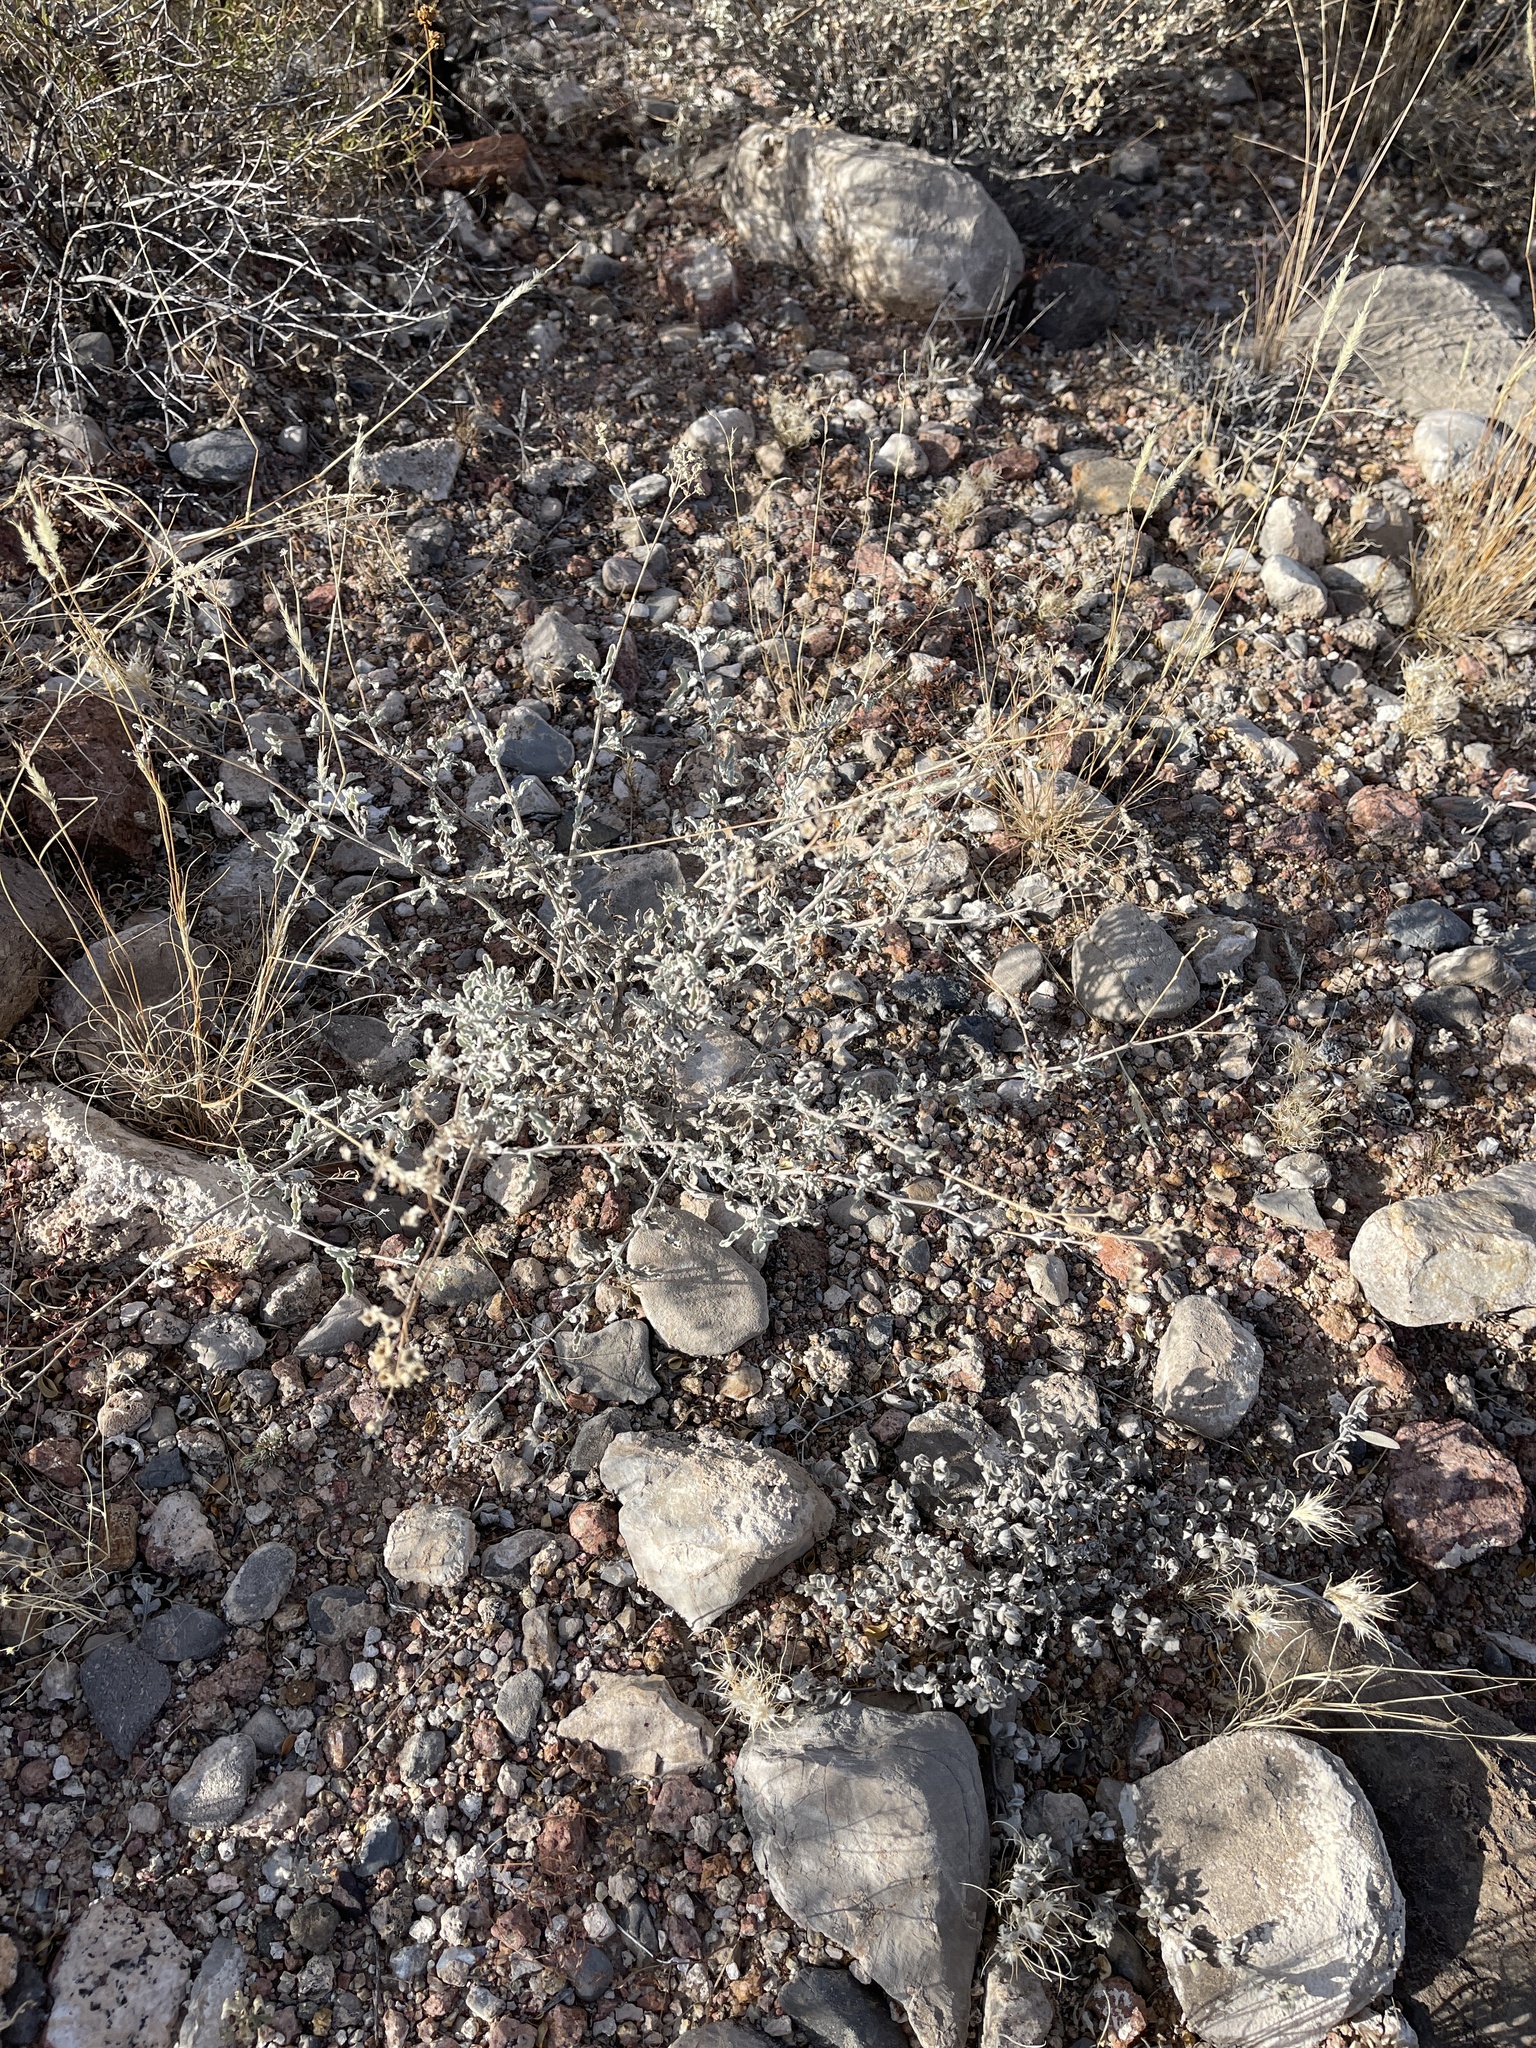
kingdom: Plantae
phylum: Tracheophyta
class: Magnoliopsida
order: Boraginales
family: Ehretiaceae
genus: Tiquilia
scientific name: Tiquilia canescens
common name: Hairy tiquilia
